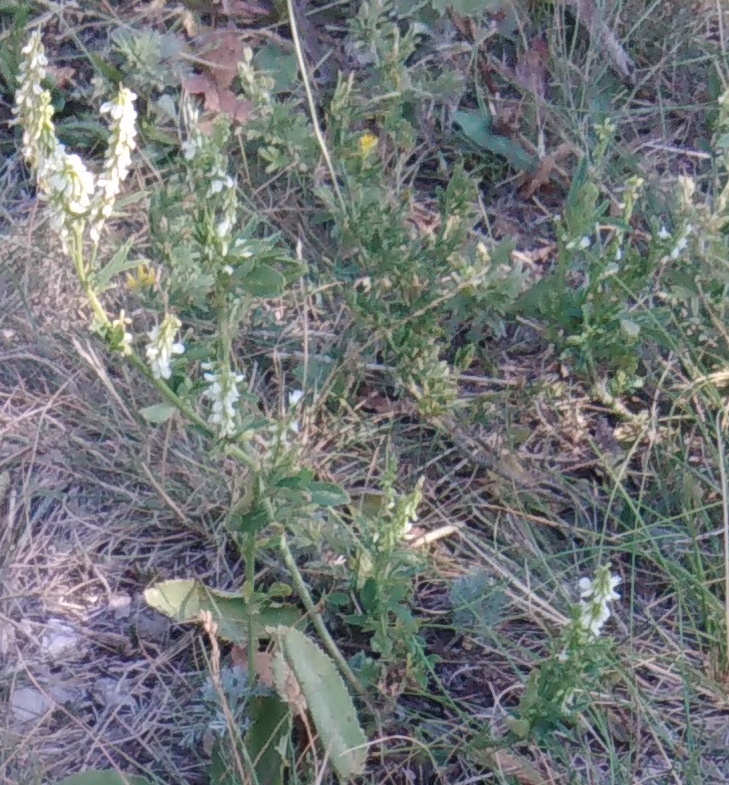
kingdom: Plantae
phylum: Tracheophyta
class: Magnoliopsida
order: Fabales
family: Fabaceae
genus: Melilotus
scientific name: Melilotus albus
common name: White melilot
